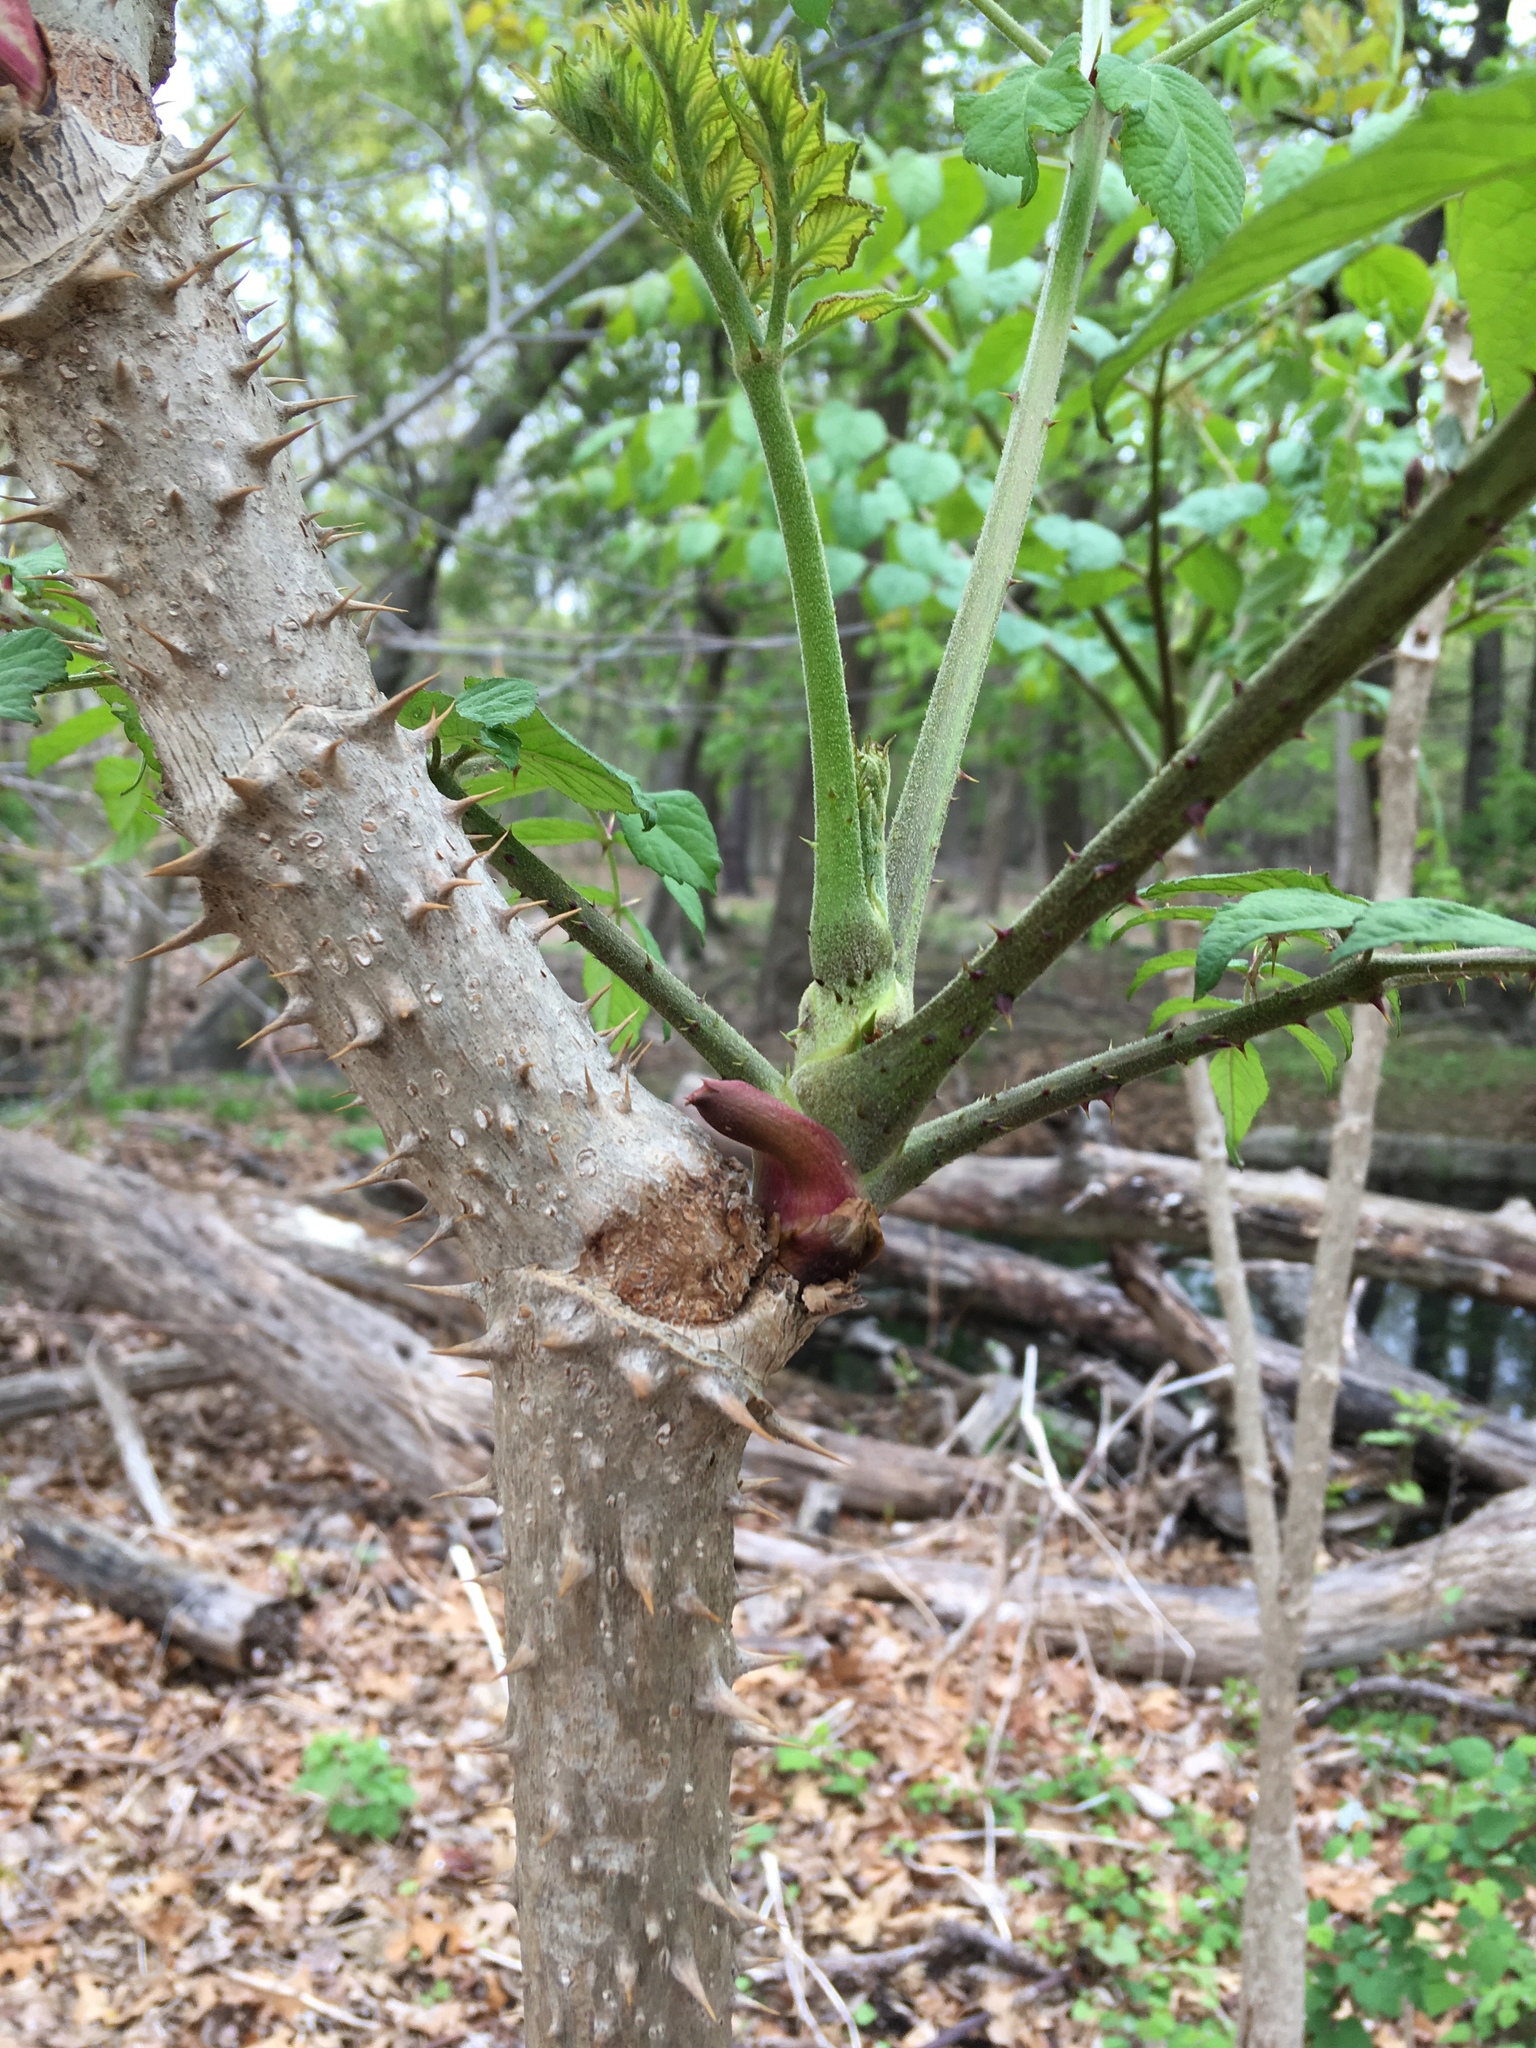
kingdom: Plantae
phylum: Tracheophyta
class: Magnoliopsida
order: Apiales
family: Araliaceae
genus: Aralia
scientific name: Aralia elata
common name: Japanese angelica-tree
